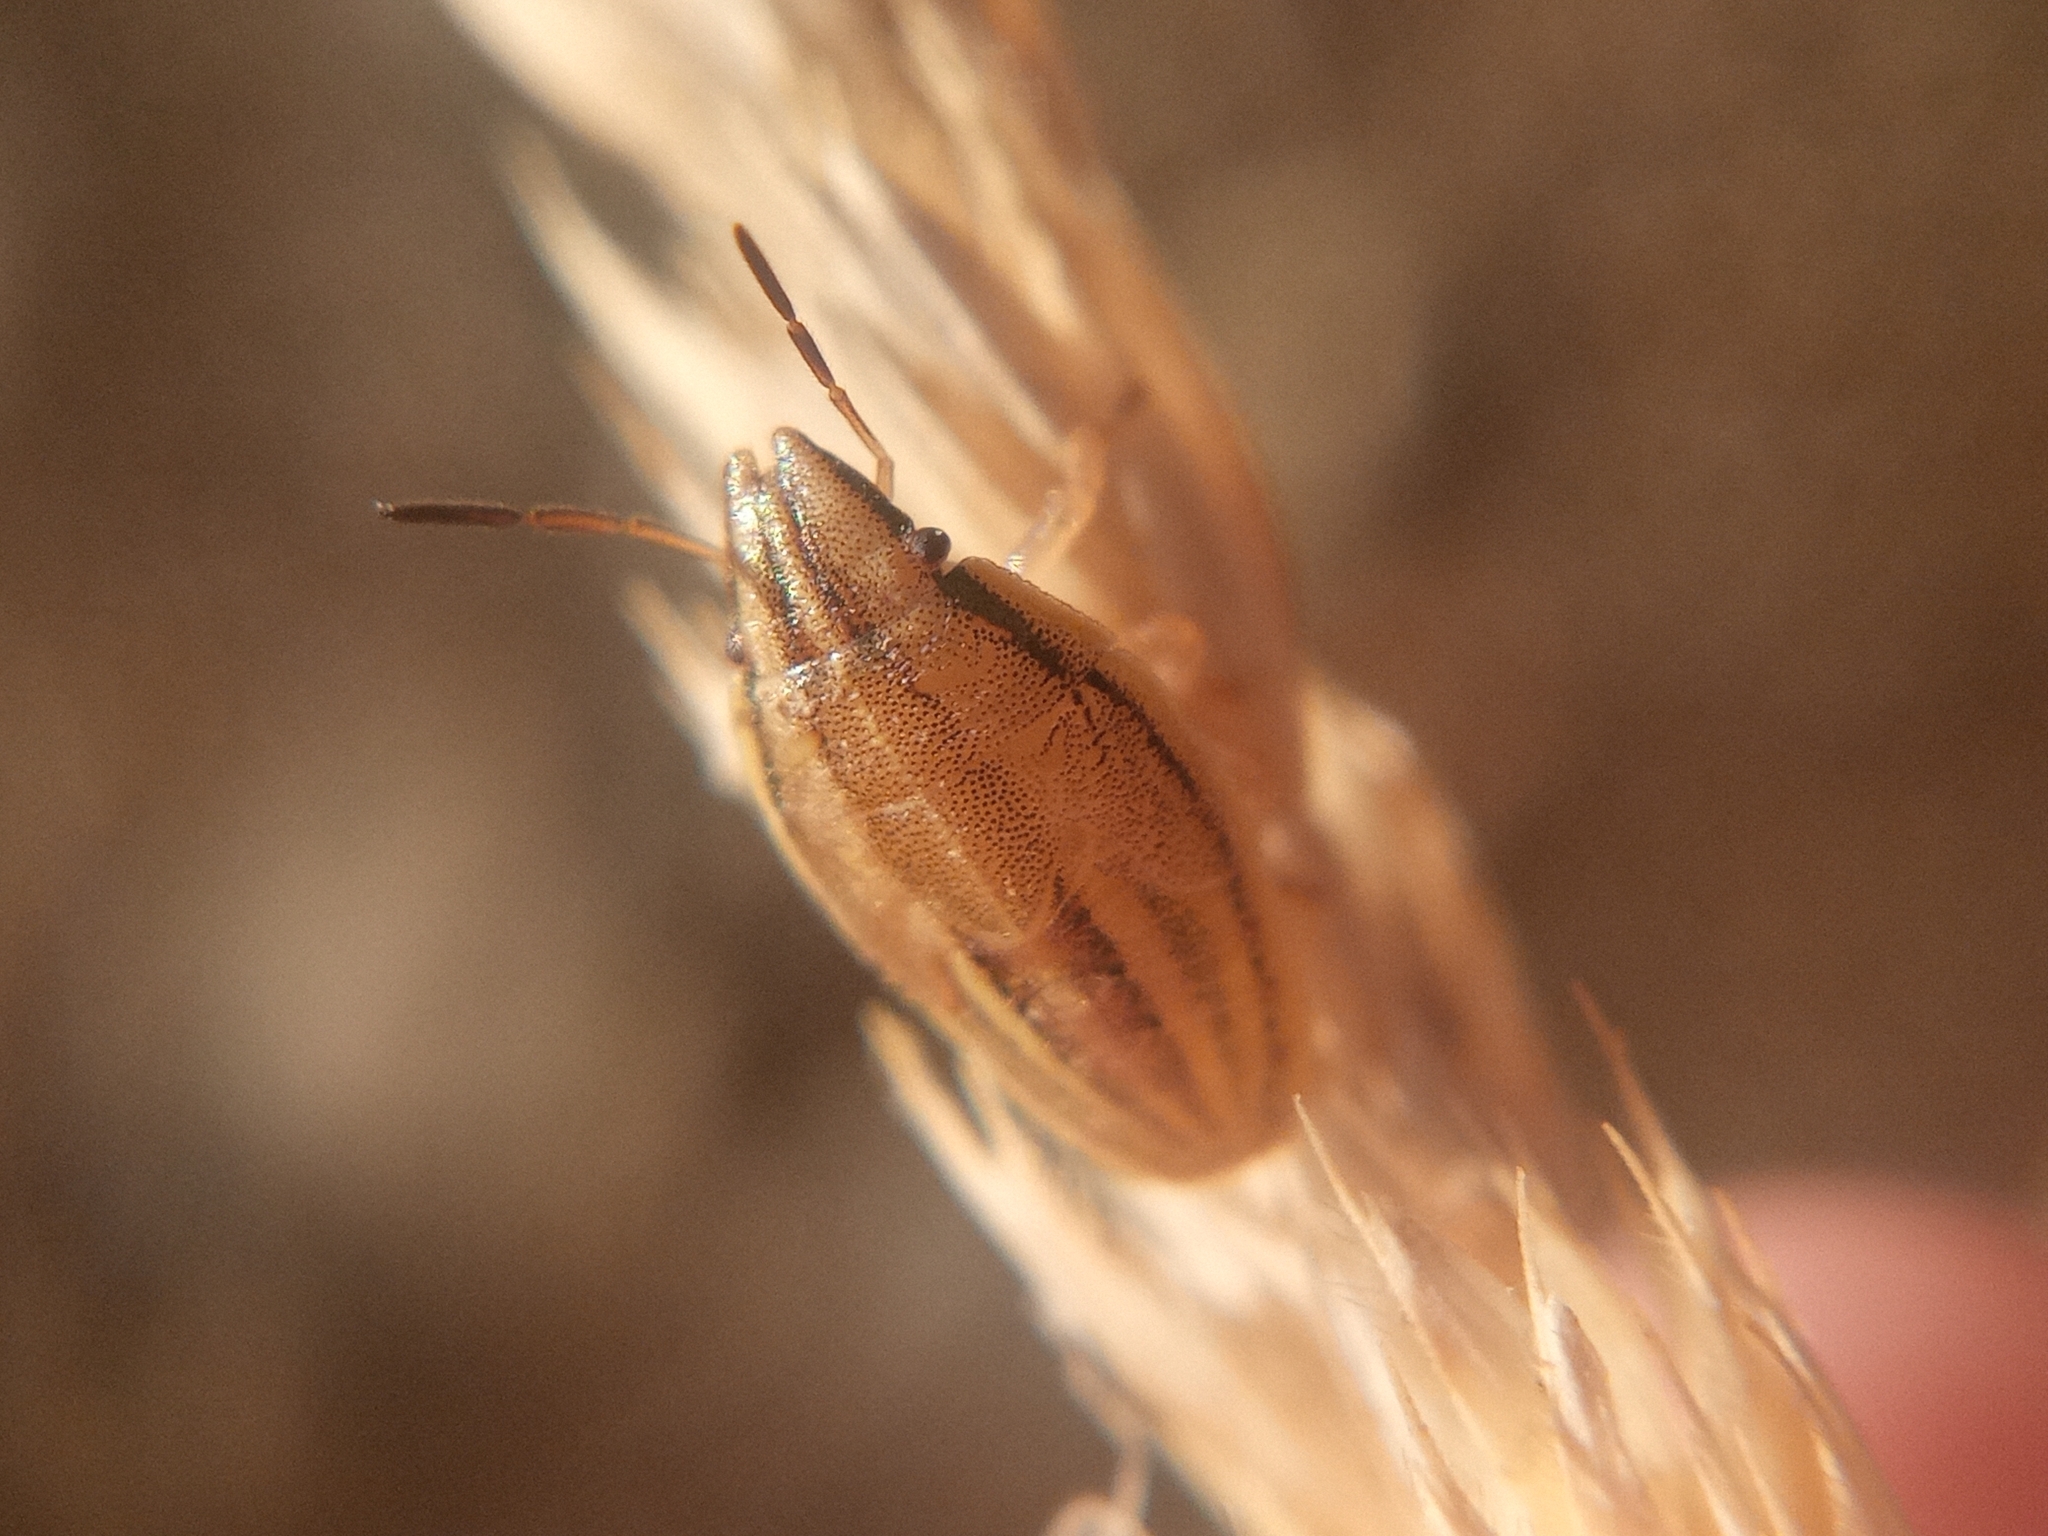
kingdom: Animalia
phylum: Arthropoda
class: Insecta
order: Hemiptera
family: Pentatomidae
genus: Aelia
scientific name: Aelia acuminata
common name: Bishop's mitre
